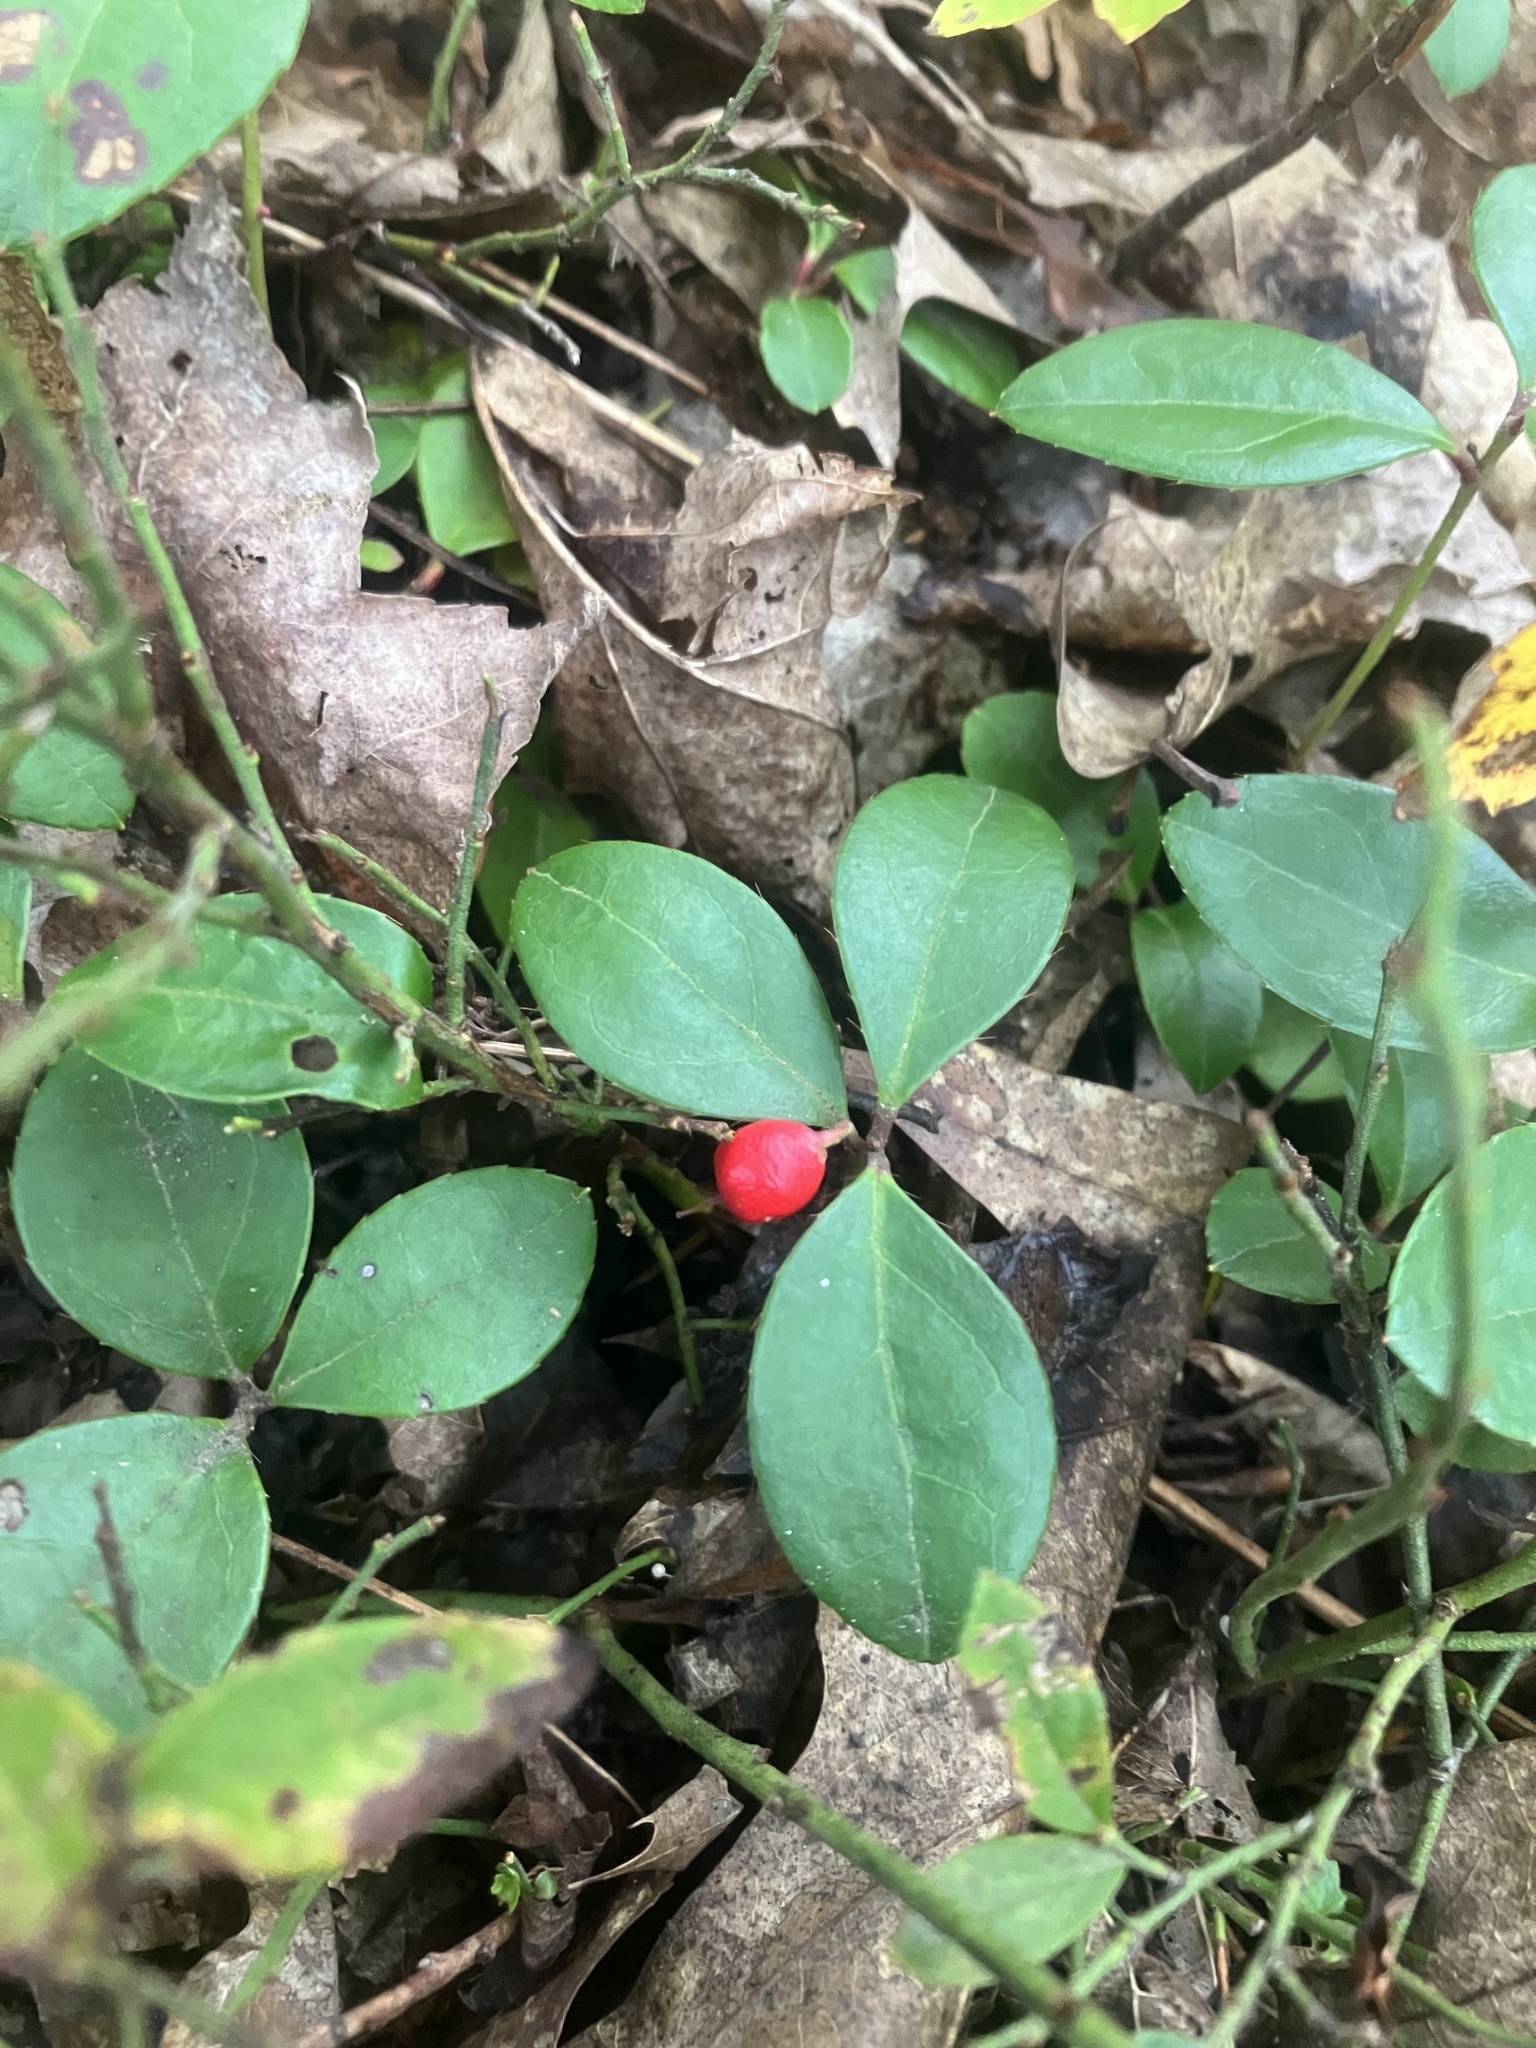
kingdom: Plantae
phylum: Tracheophyta
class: Magnoliopsida
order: Ericales
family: Ericaceae
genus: Gaultheria
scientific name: Gaultheria procumbens
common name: Checkerberry
